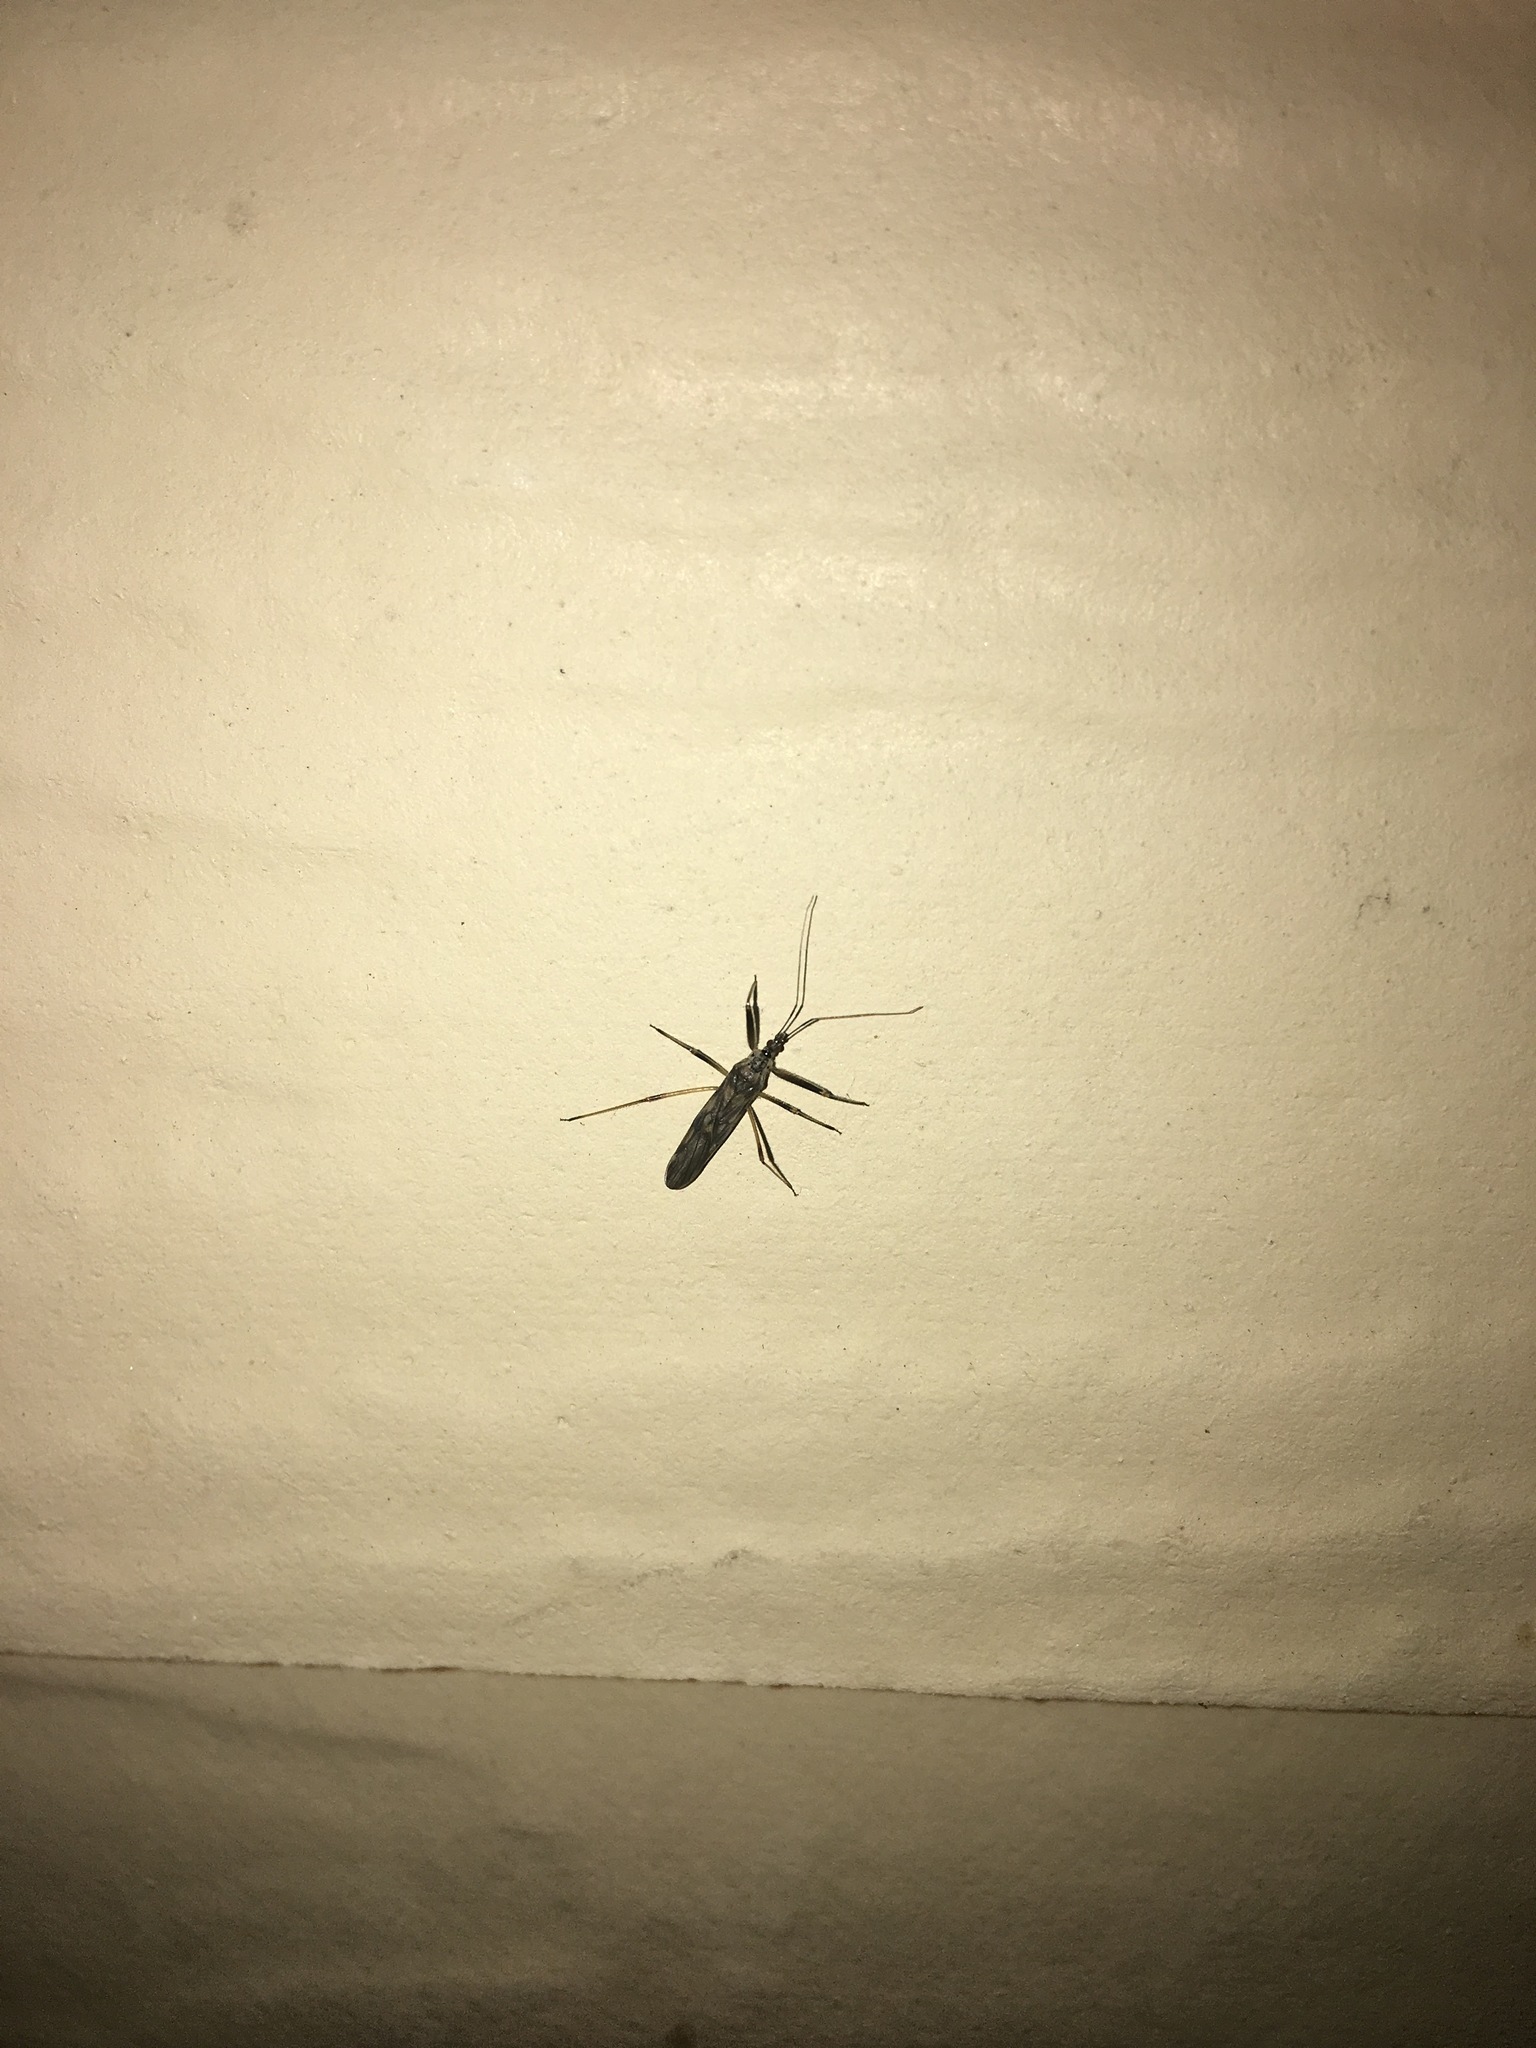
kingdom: Animalia
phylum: Arthropoda
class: Insecta
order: Hemiptera
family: Nabidae
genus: Metatropiphorus
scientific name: Metatropiphorus belfragii
